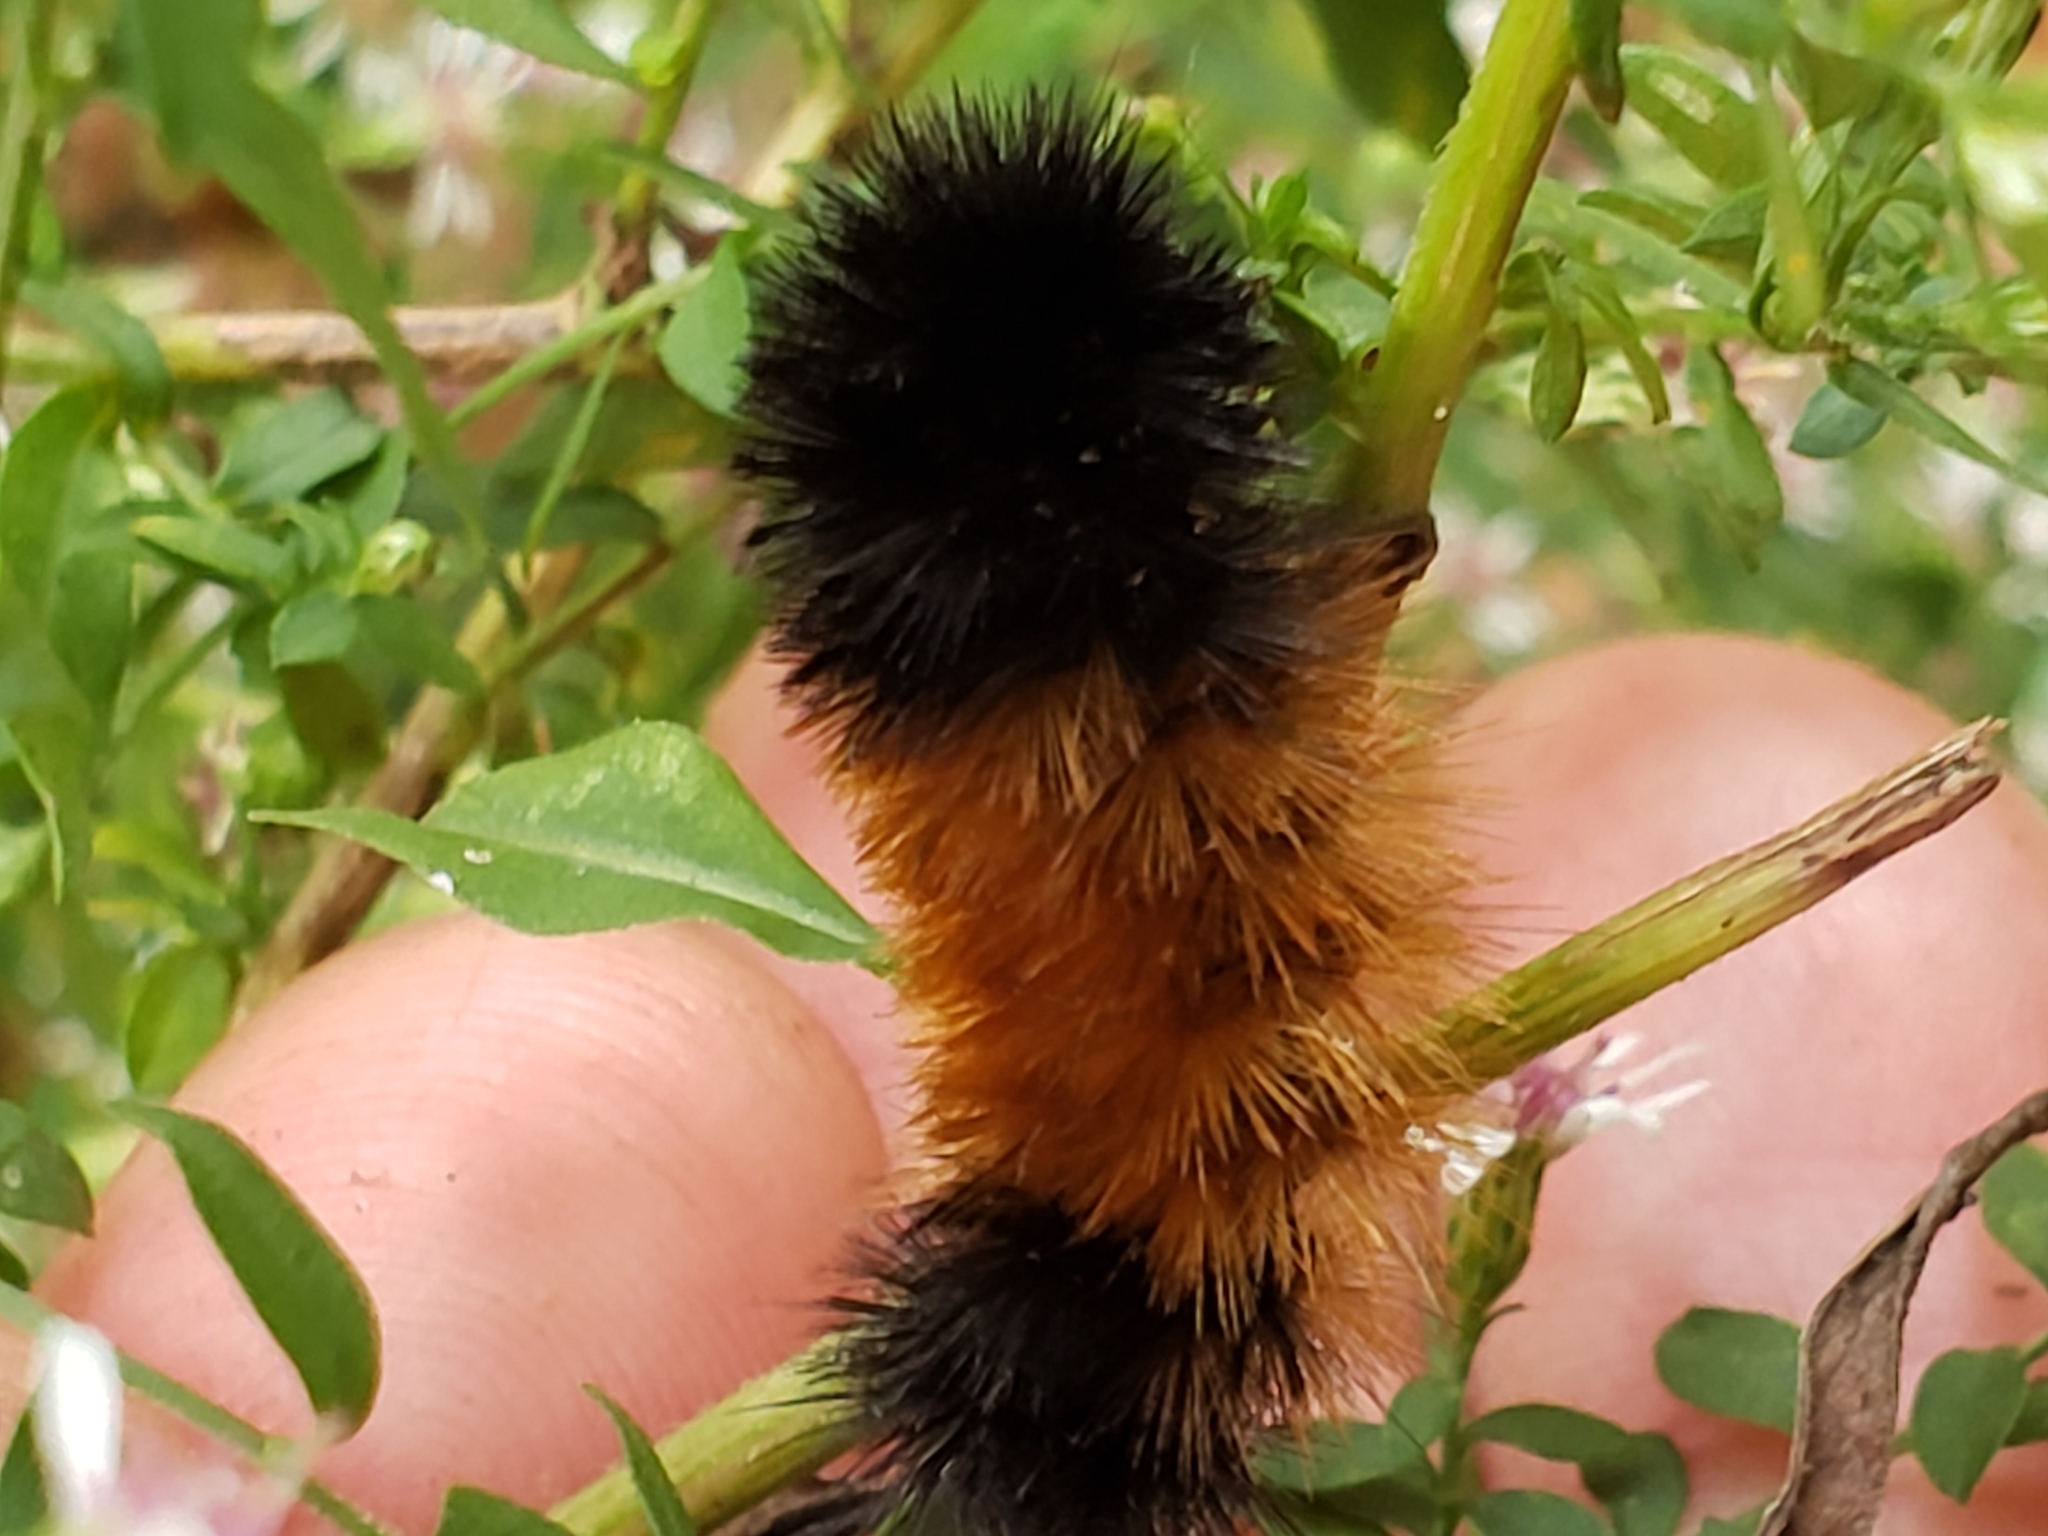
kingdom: Animalia
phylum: Arthropoda
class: Insecta
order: Lepidoptera
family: Erebidae
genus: Pyrrharctia
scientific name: Pyrrharctia isabella
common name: Isabella tiger moth
